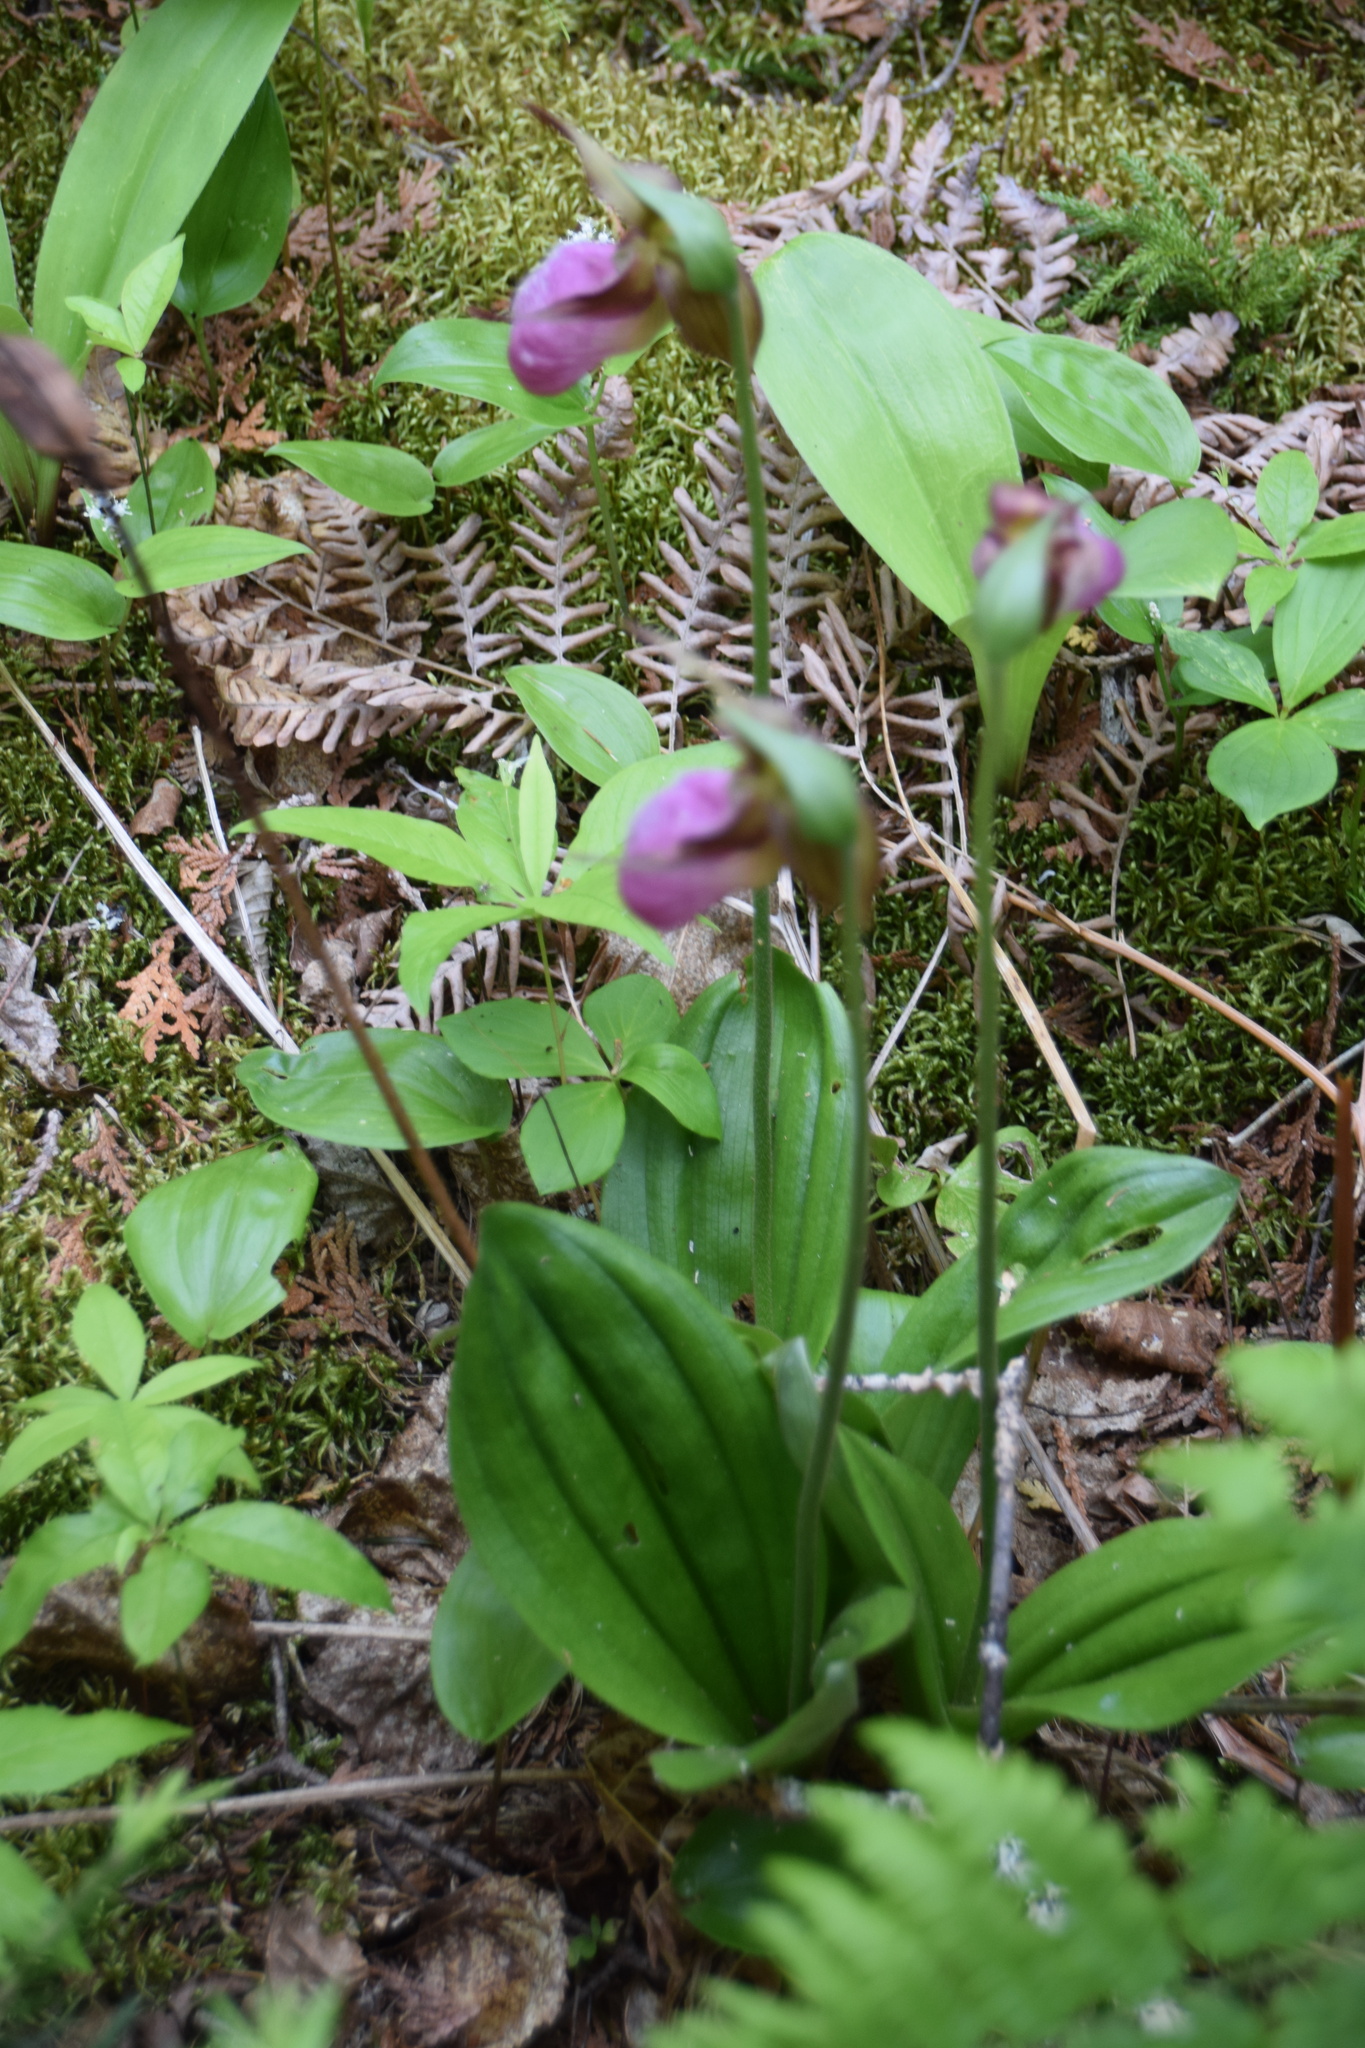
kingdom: Plantae
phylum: Tracheophyta
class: Liliopsida
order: Asparagales
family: Orchidaceae
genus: Cypripedium
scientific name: Cypripedium acaule
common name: Pink lady's-slipper
